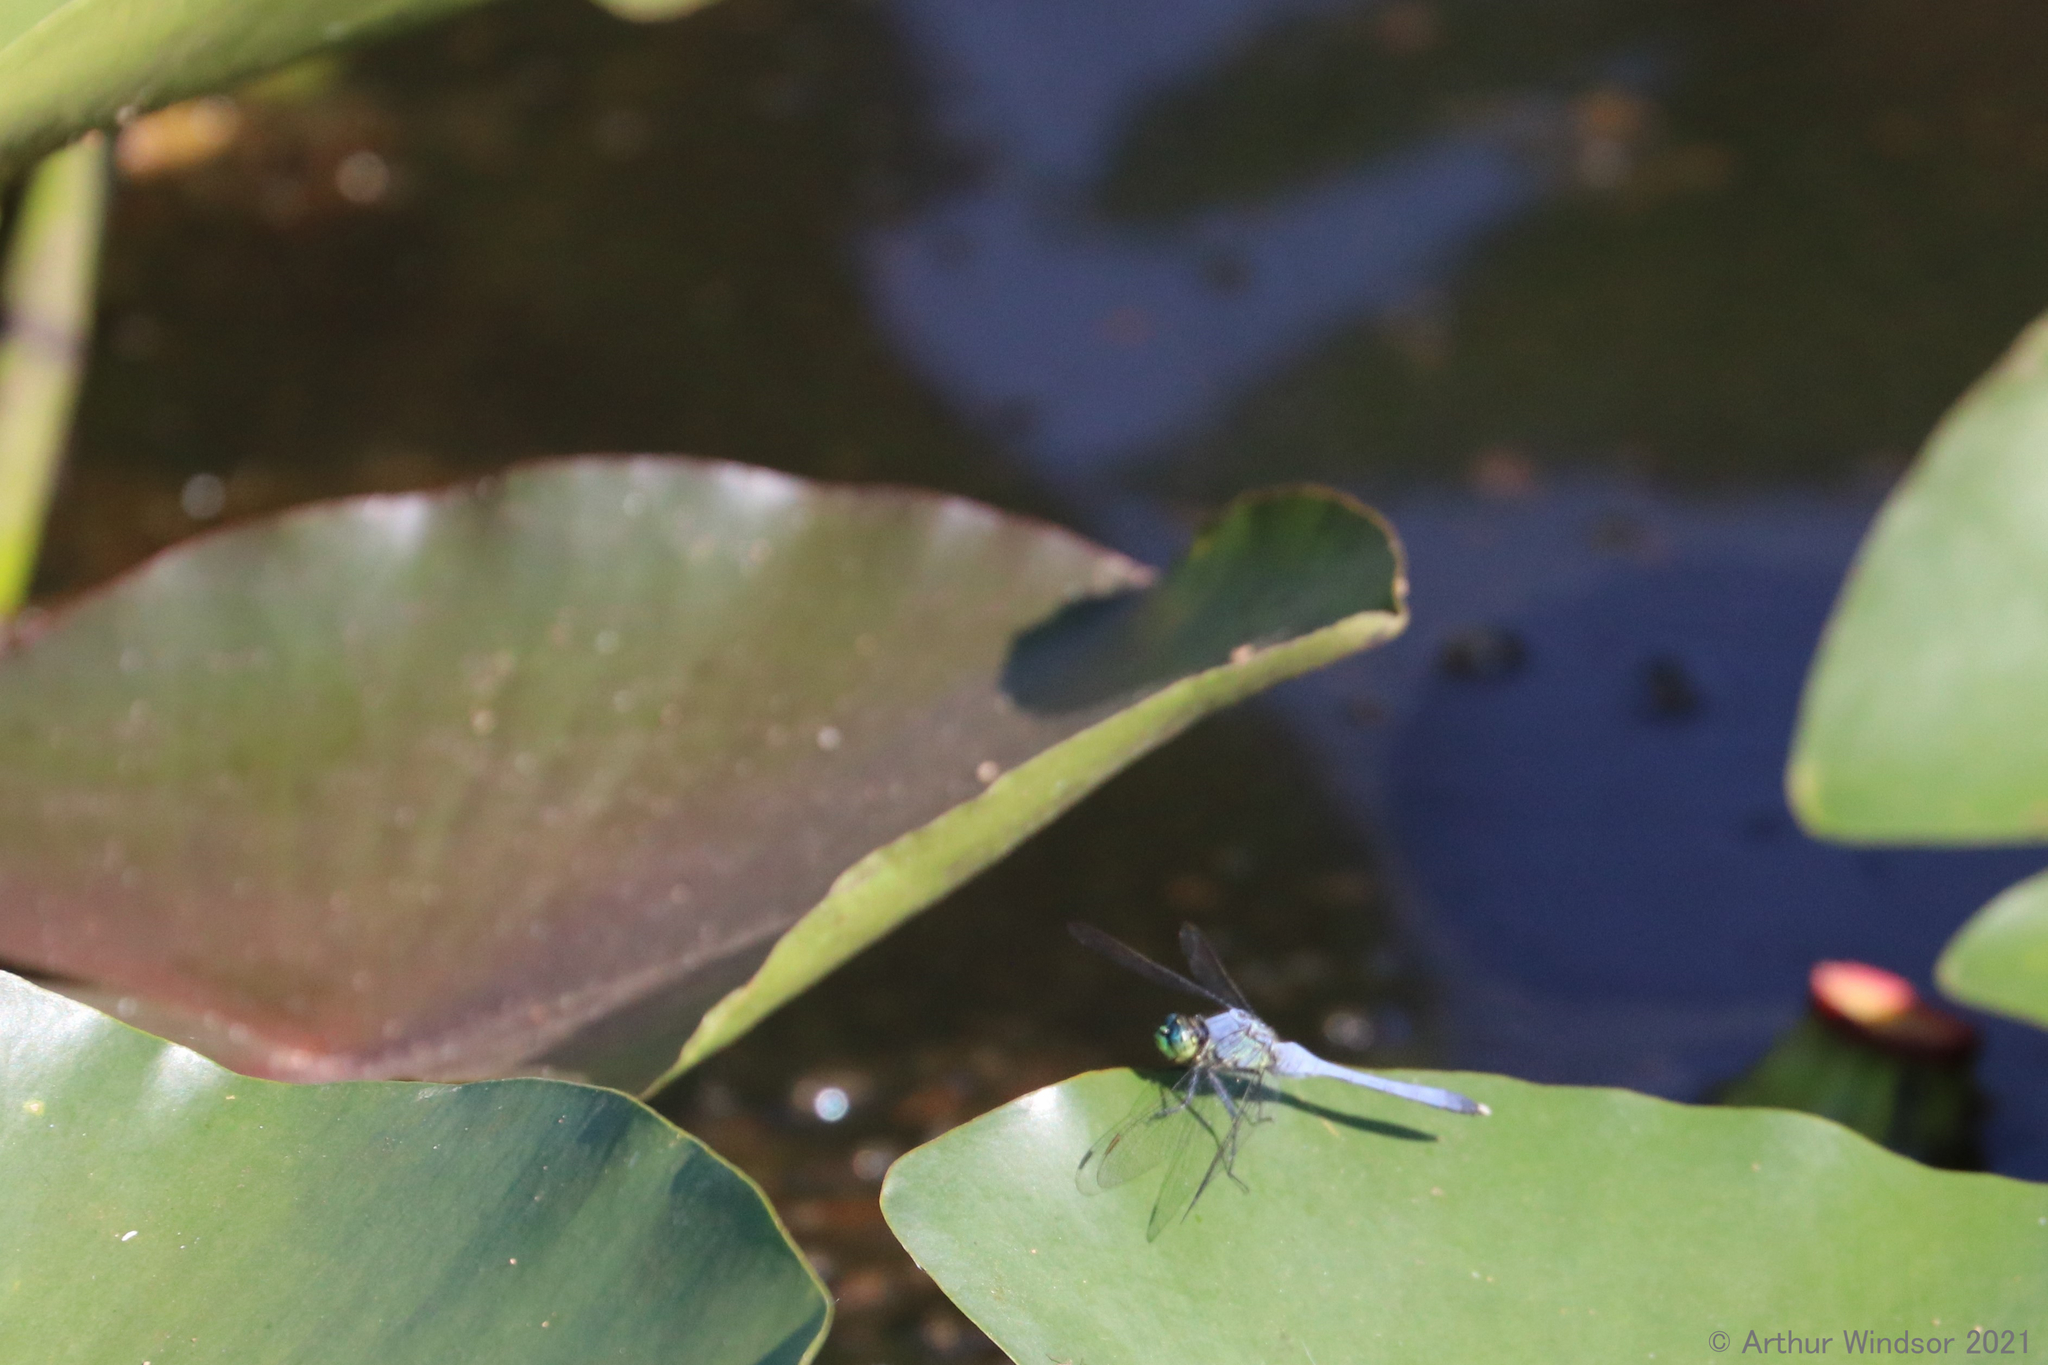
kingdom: Animalia
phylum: Arthropoda
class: Insecta
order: Odonata
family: Libellulidae
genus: Erythemis
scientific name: Erythemis simplicicollis
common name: Eastern pondhawk
